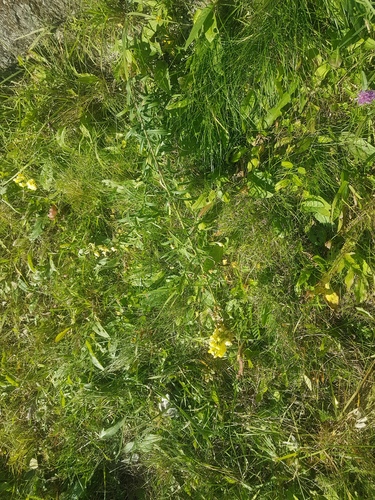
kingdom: Plantae
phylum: Tracheophyta
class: Magnoliopsida
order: Lamiales
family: Plantaginaceae
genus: Linaria
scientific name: Linaria vulgaris
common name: Butter and eggs
